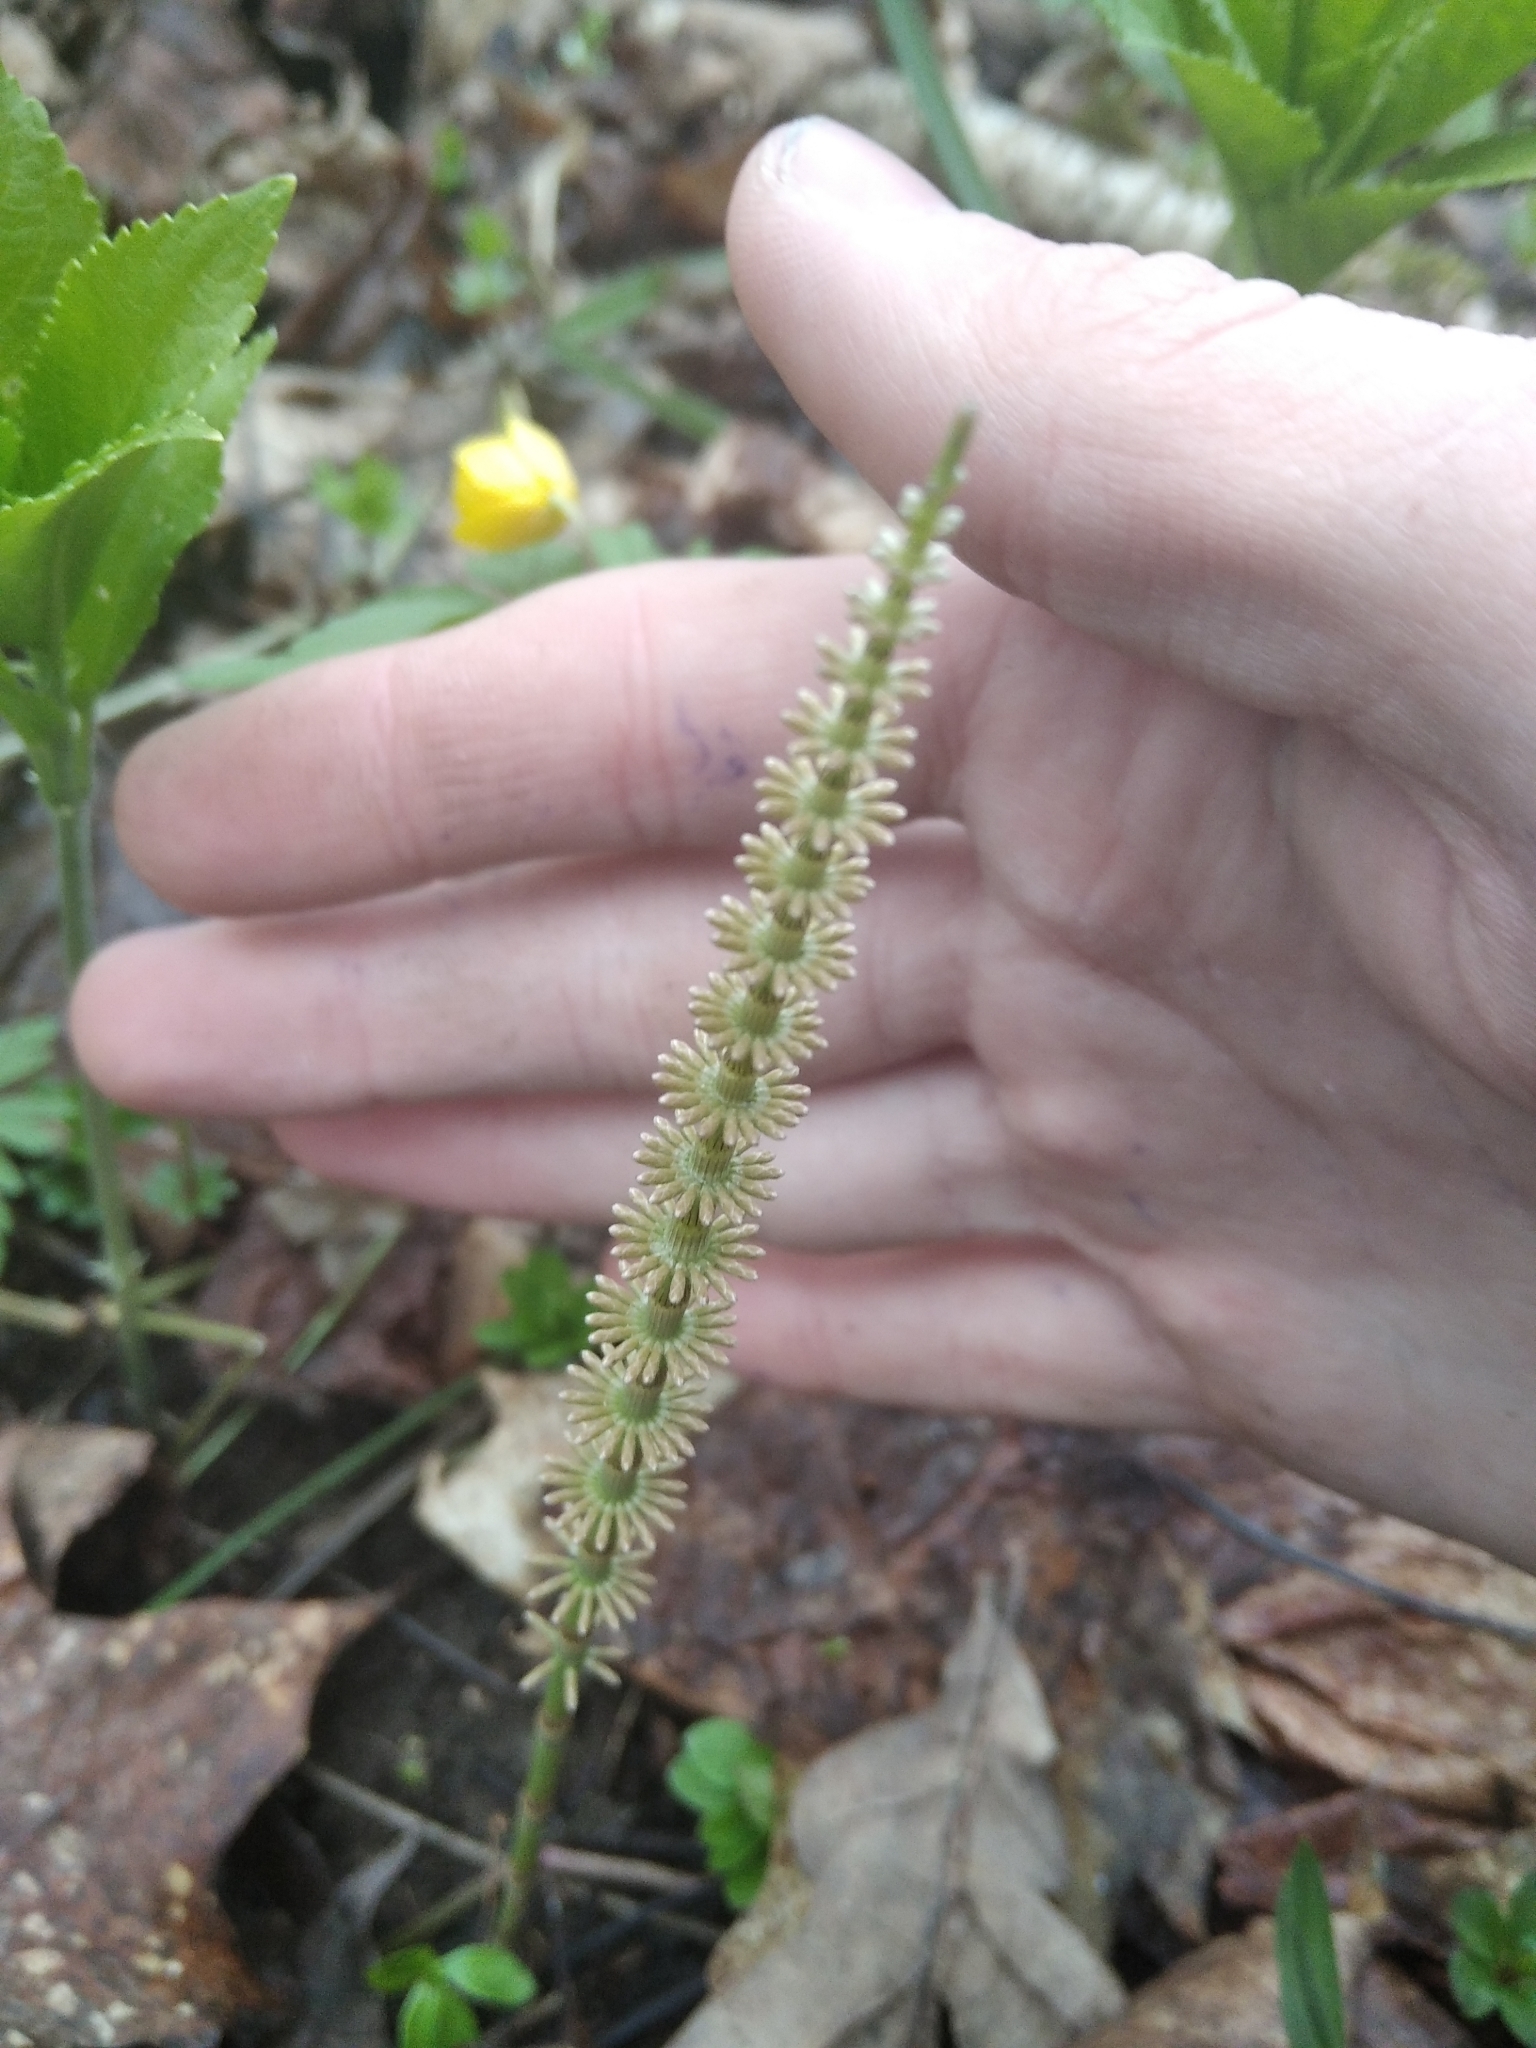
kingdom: Plantae
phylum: Tracheophyta
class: Polypodiopsida
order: Equisetales
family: Equisetaceae
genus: Equisetum
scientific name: Equisetum pratense
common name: Meadow horsetail
